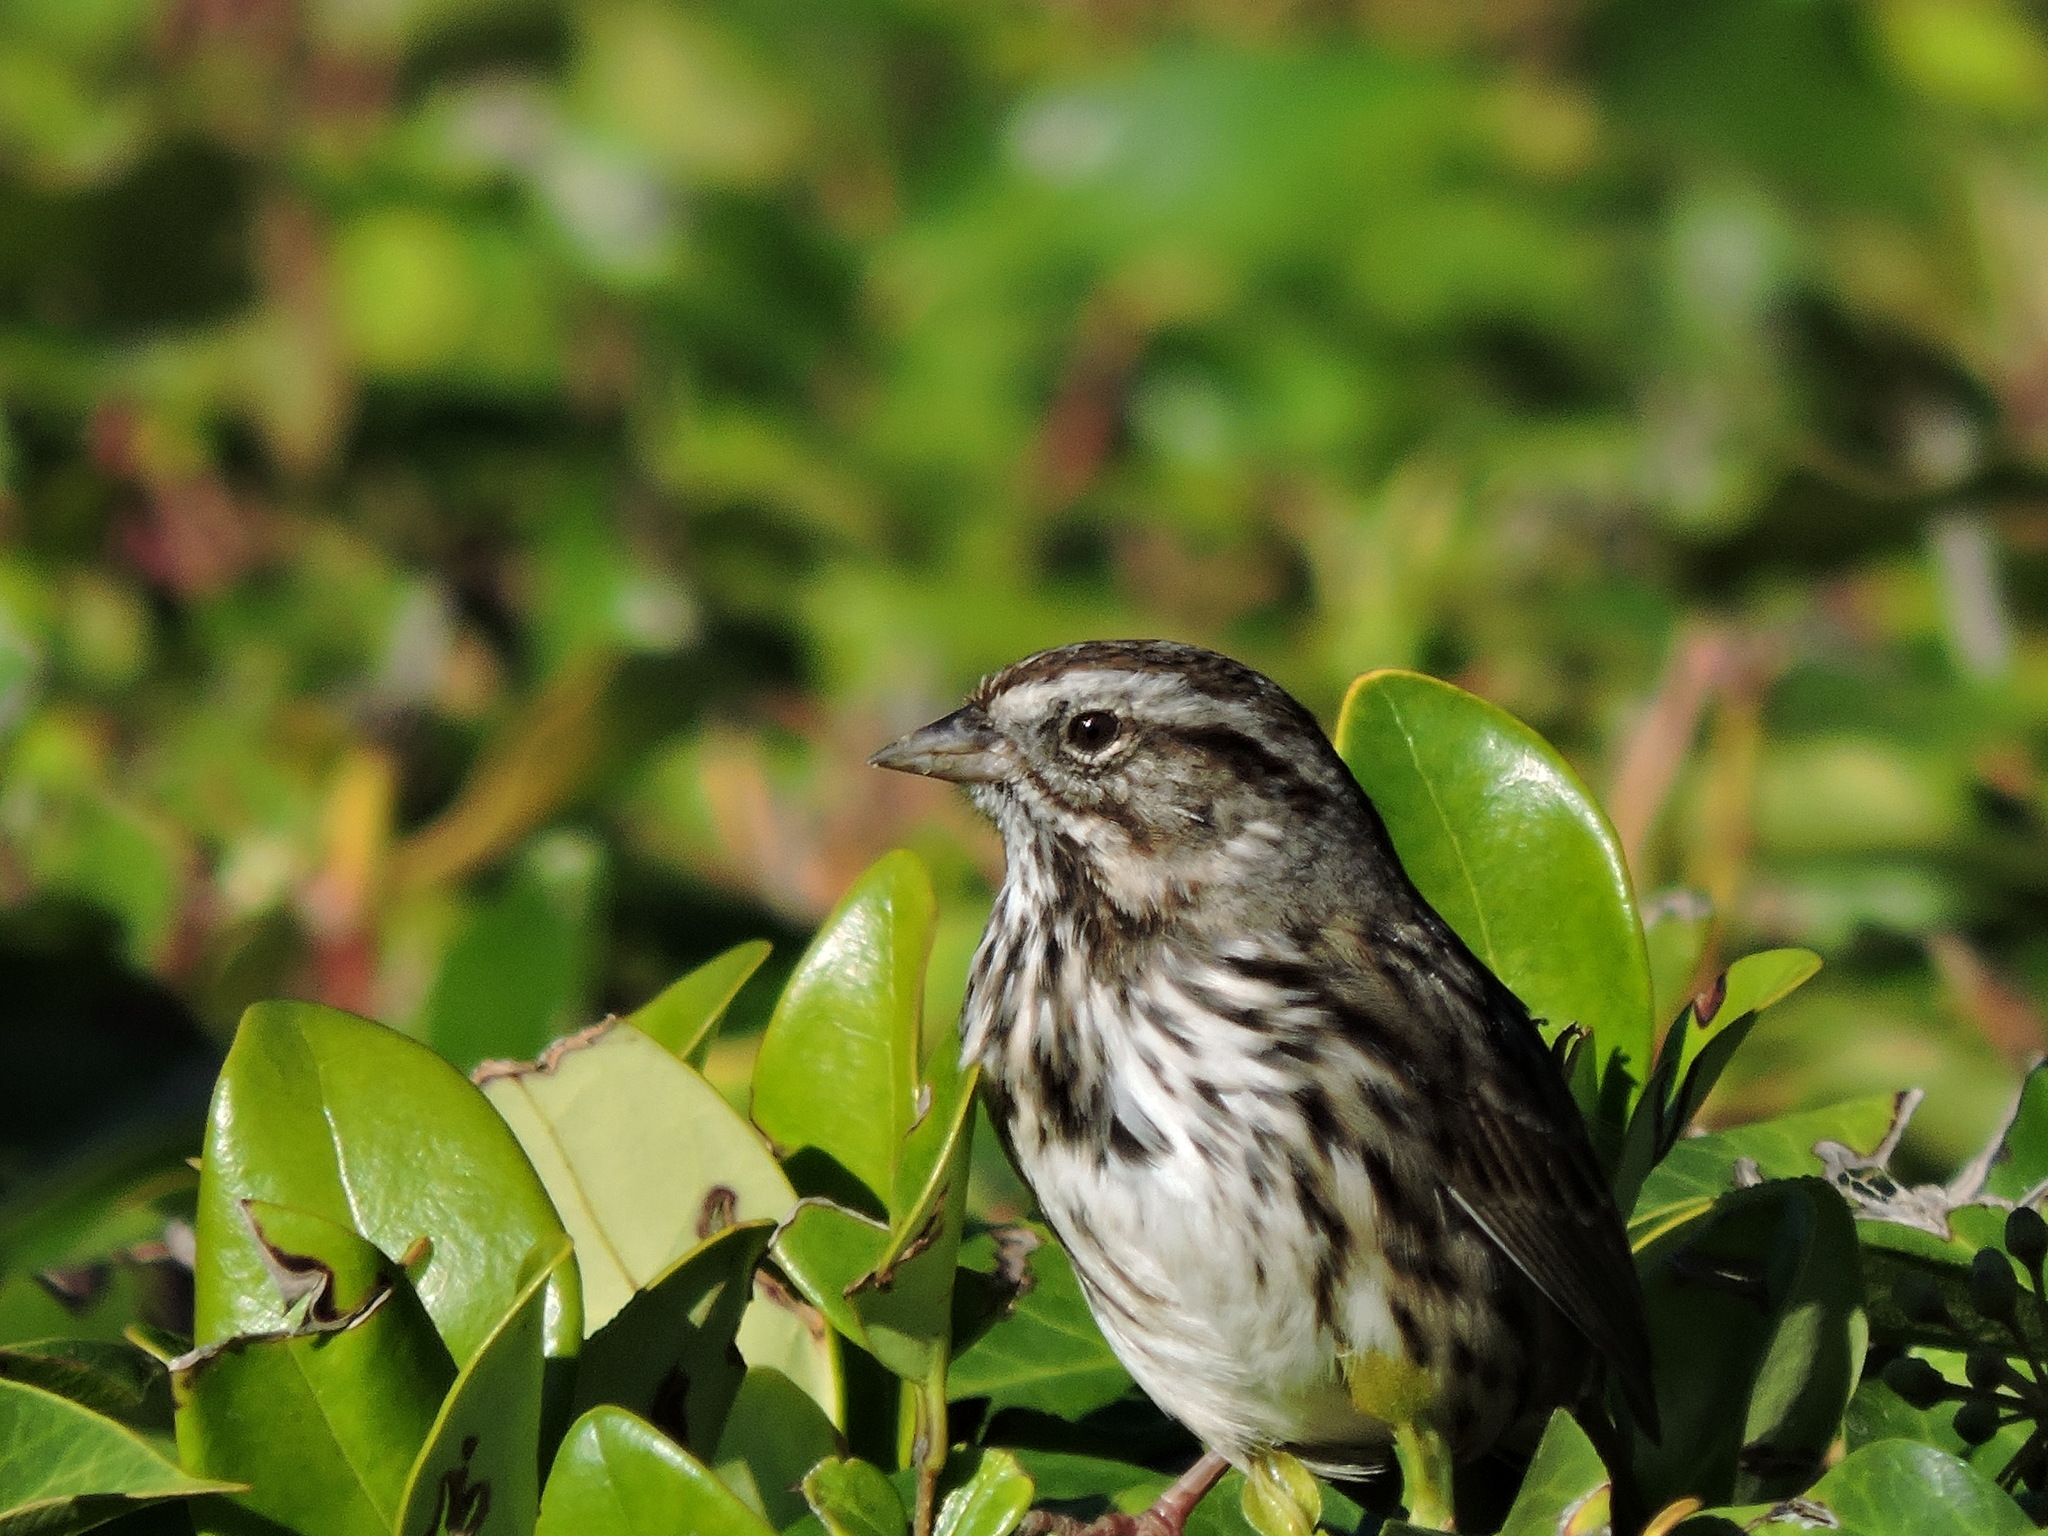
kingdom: Animalia
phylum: Chordata
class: Aves
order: Passeriformes
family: Passerellidae
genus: Melospiza
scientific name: Melospiza melodia
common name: Song sparrow
